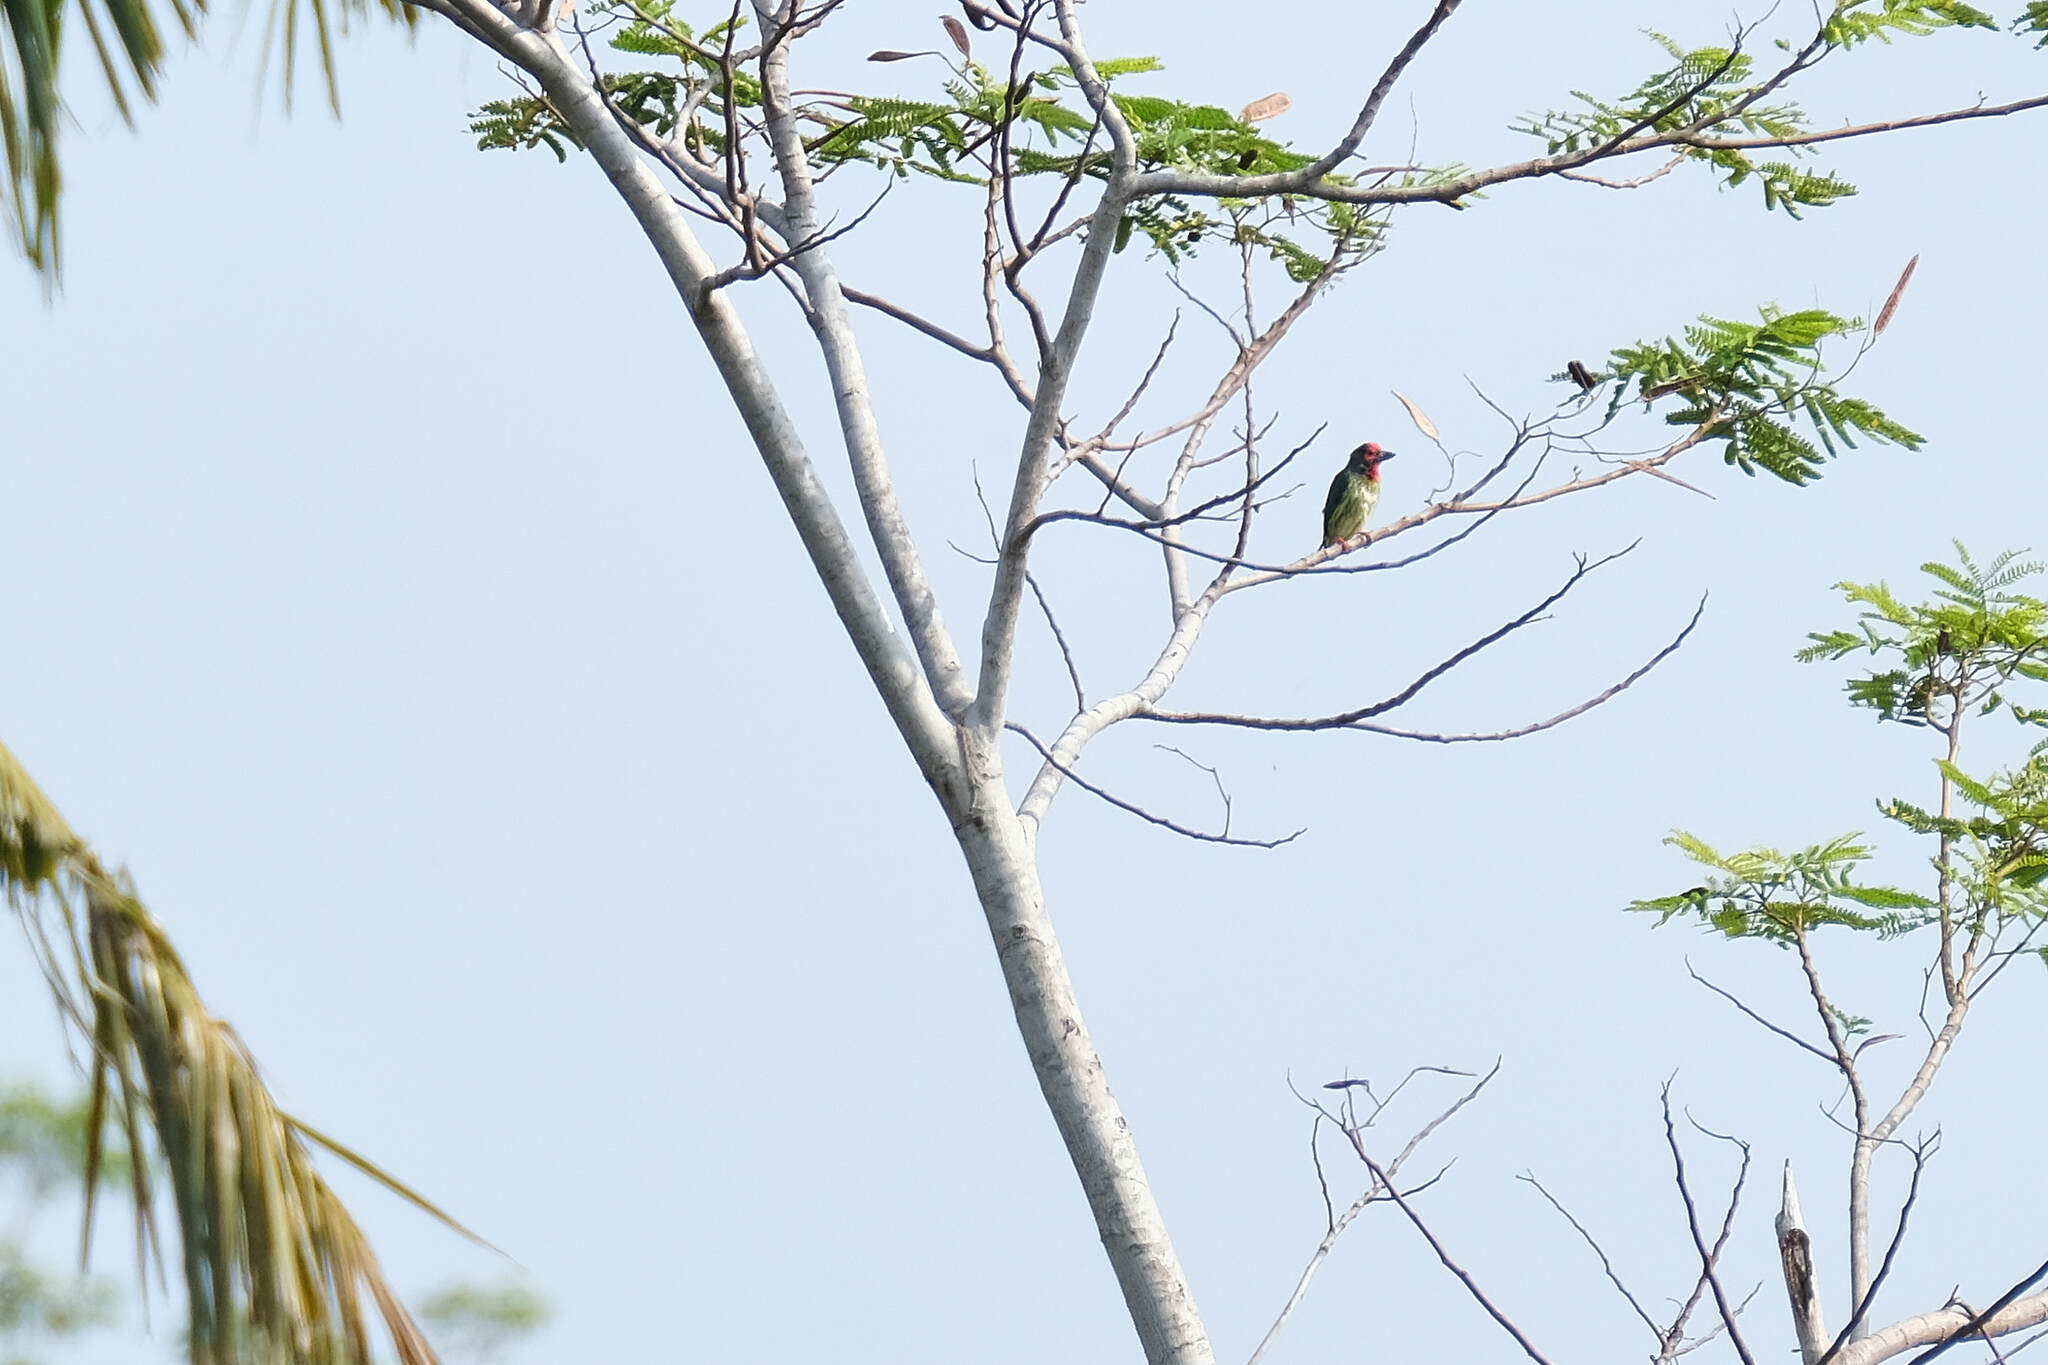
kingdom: Animalia
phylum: Chordata
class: Aves
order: Piciformes
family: Megalaimidae
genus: Psilopogon
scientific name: Psilopogon haemacephalus
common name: Coppersmith barbet
